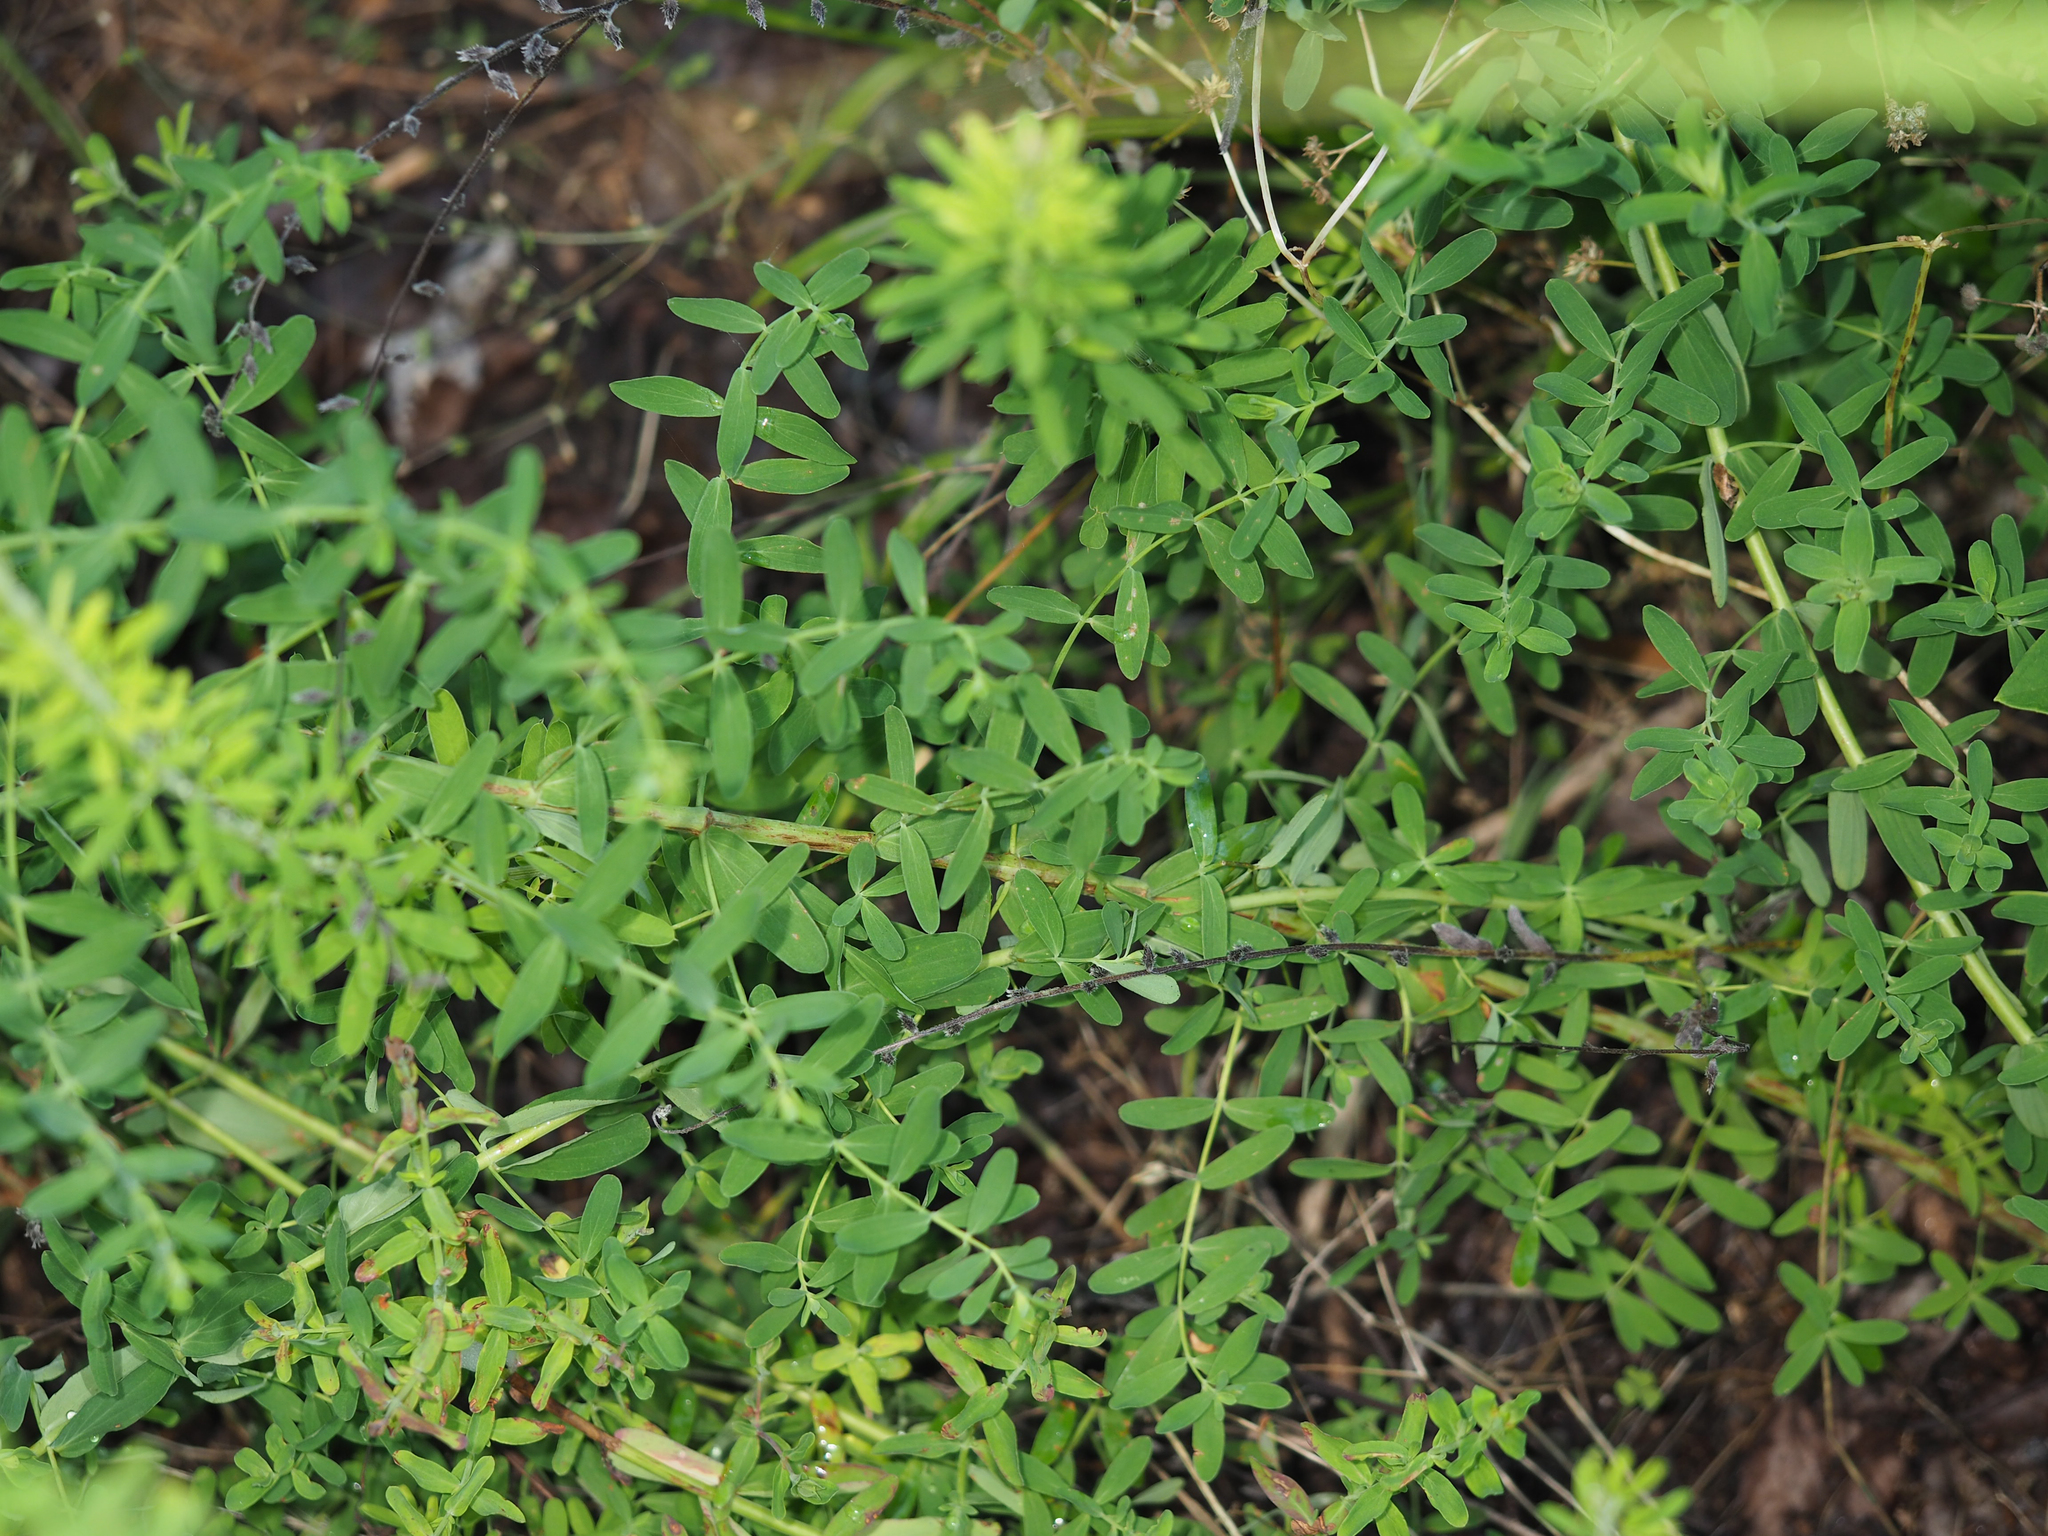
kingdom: Plantae
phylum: Tracheophyta
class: Magnoliopsida
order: Malpighiales
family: Hypericaceae
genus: Hypericum
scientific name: Hypericum perforatum
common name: Common st. johnswort
